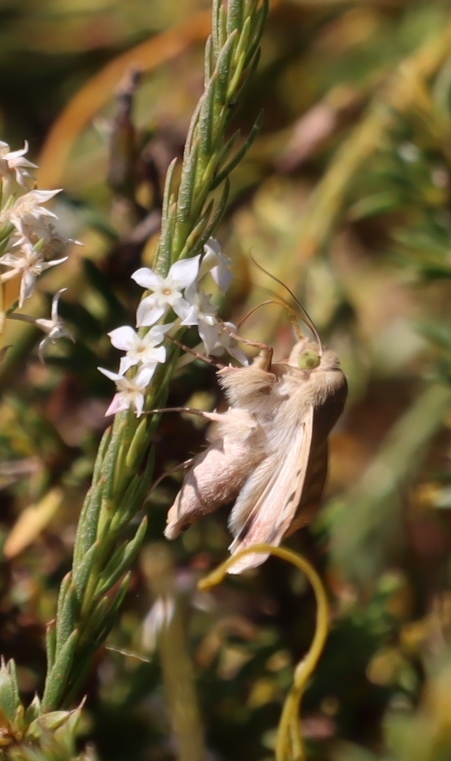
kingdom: Plantae
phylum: Tracheophyta
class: Magnoliopsida
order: Malvales
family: Thymelaeaceae
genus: Struthiola
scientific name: Struthiola dodecandra
